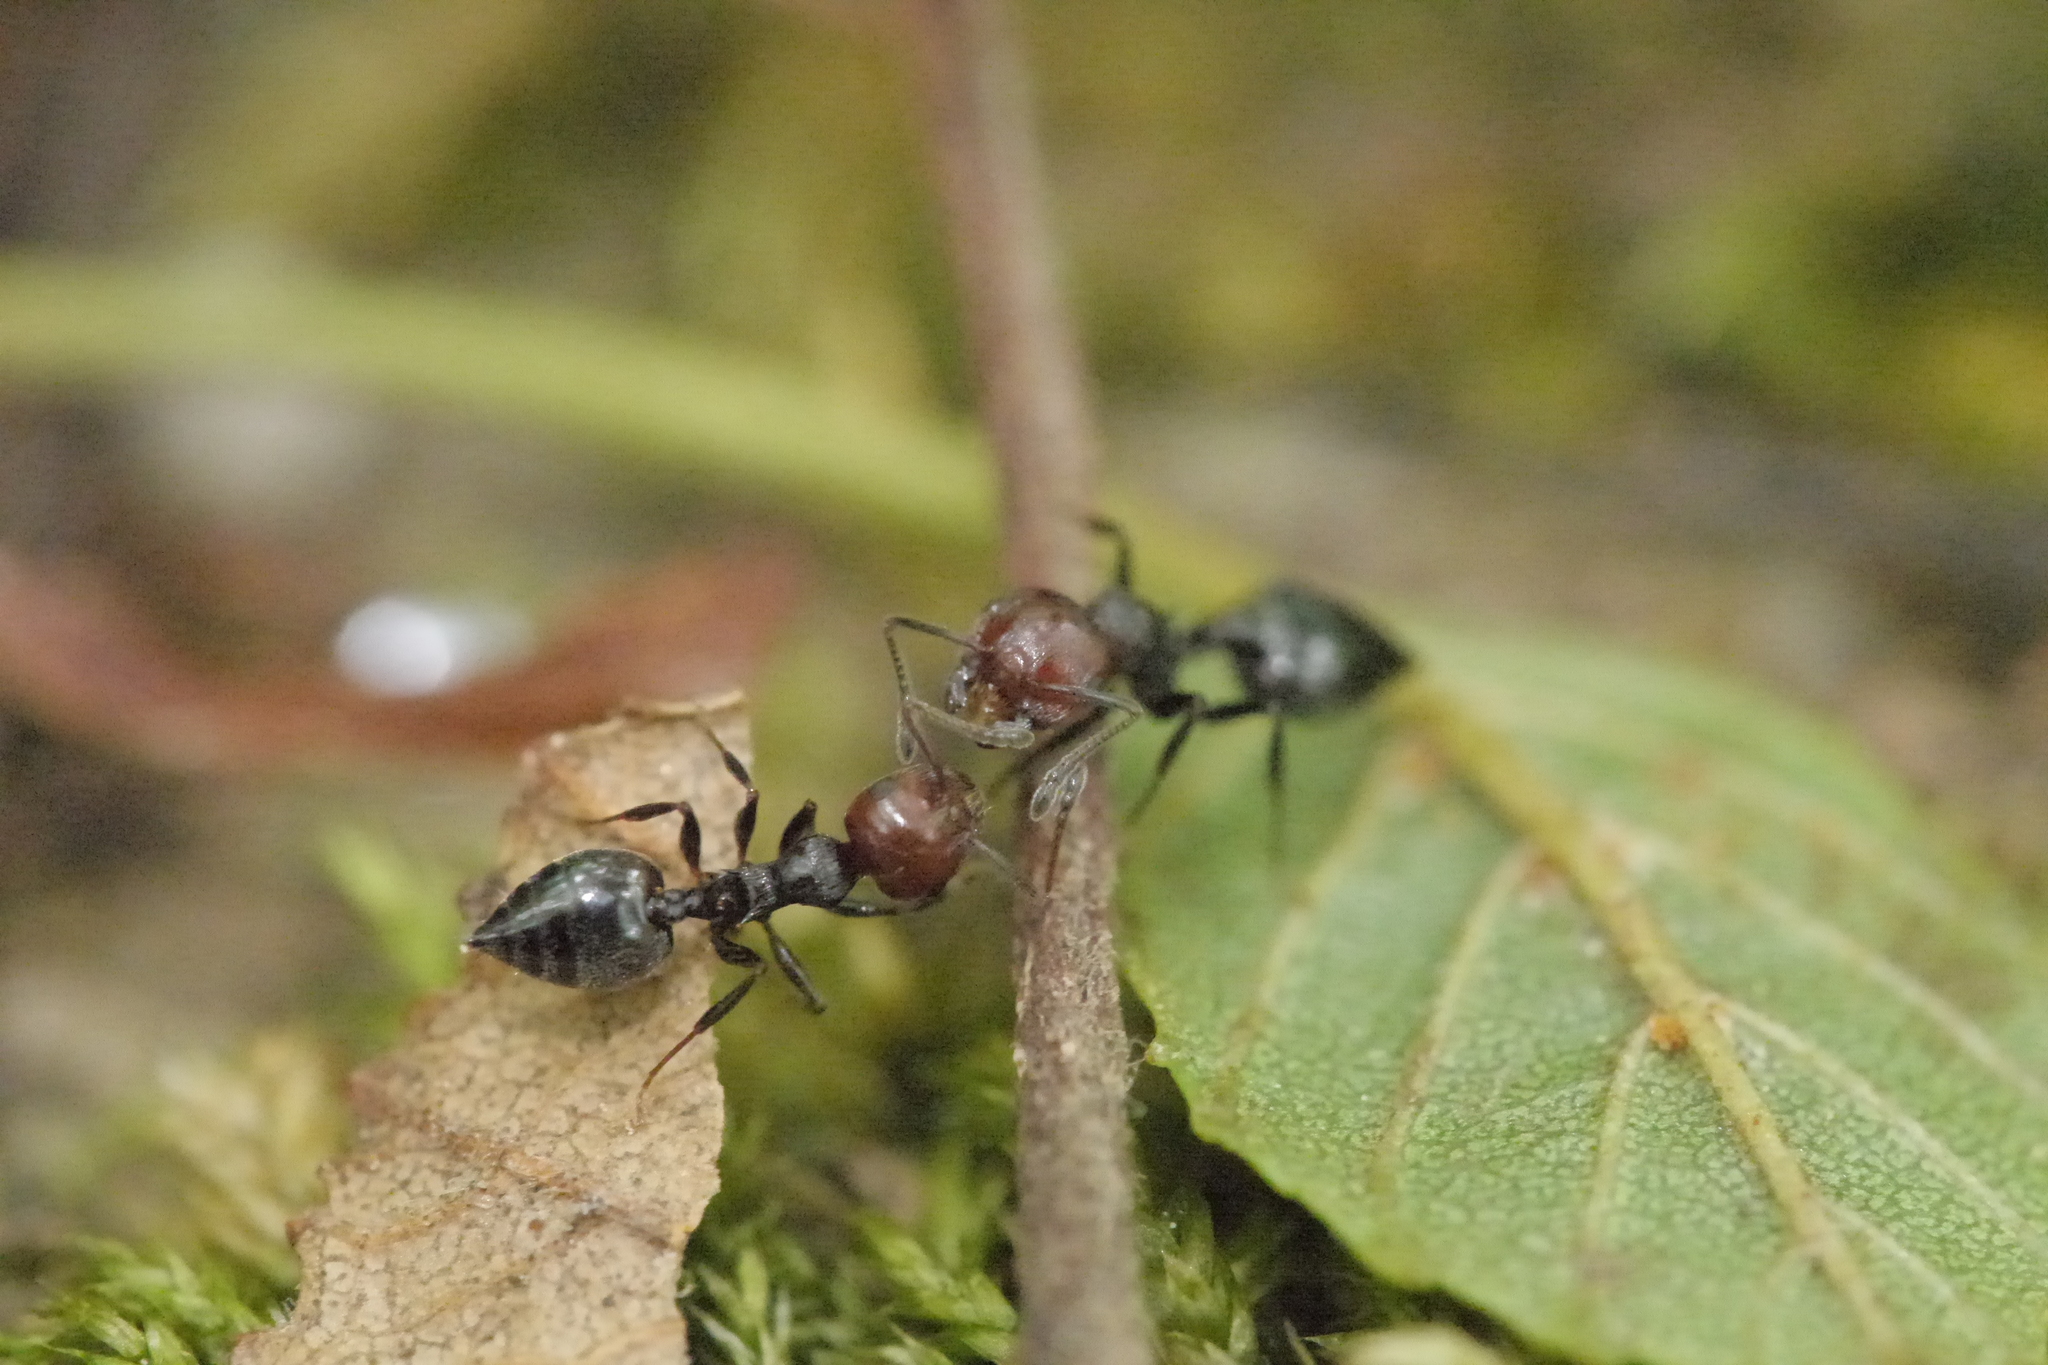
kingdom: Animalia
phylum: Arthropoda
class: Insecta
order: Hymenoptera
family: Formicidae
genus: Crematogaster
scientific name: Crematogaster scutellaris
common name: Fourmi du liège
